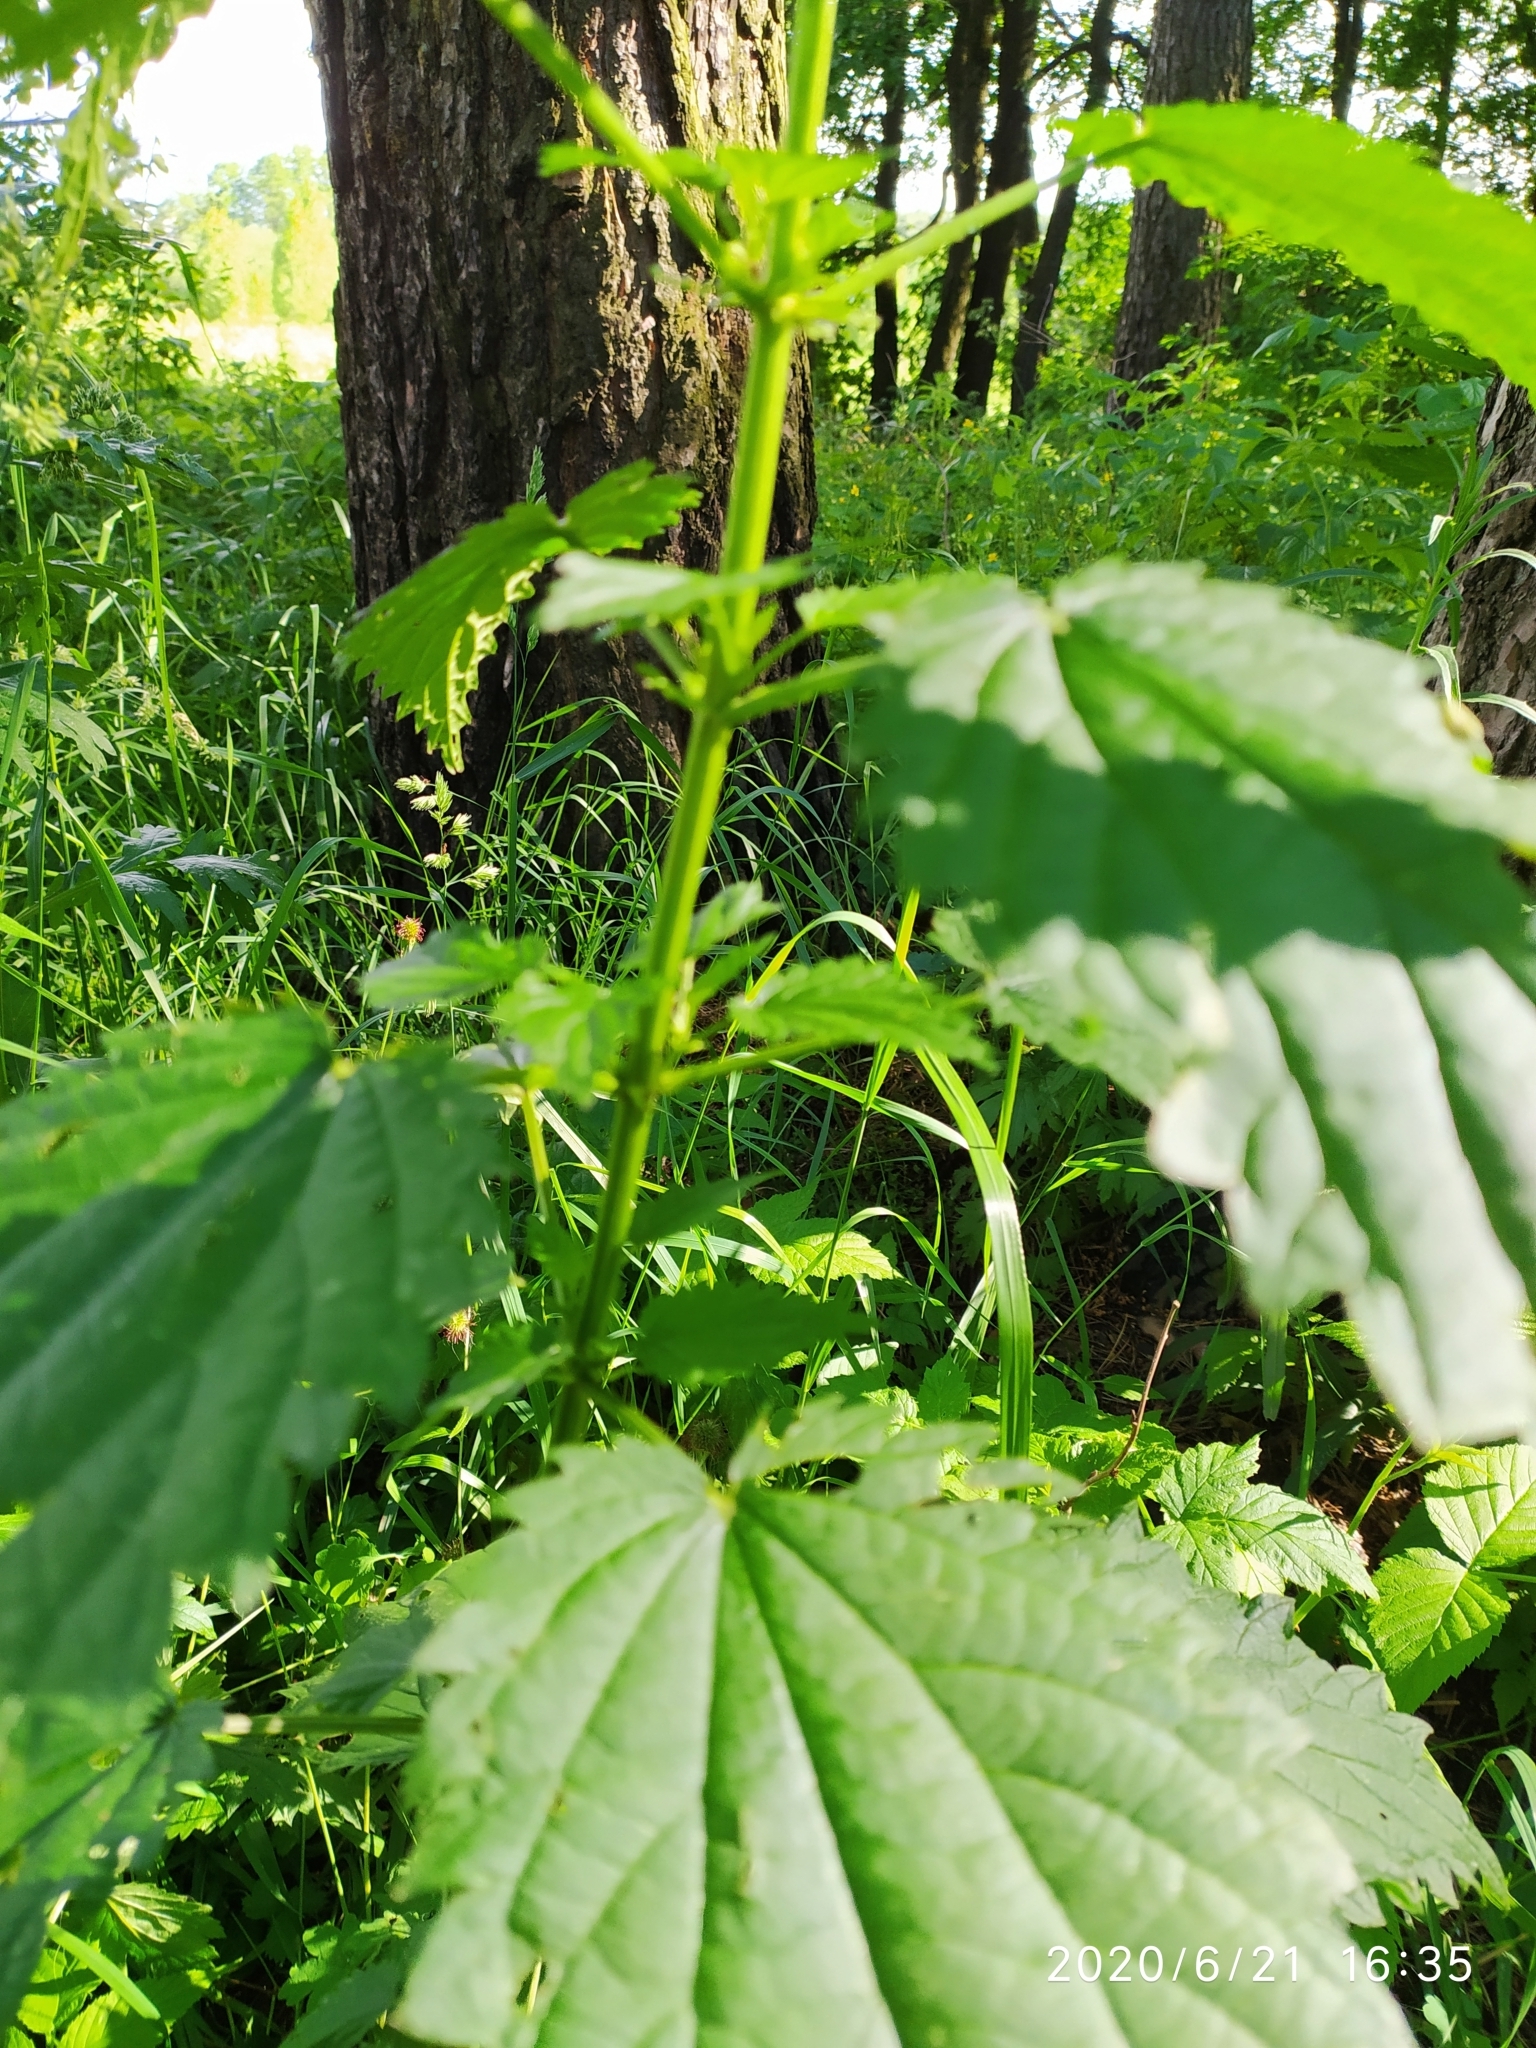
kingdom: Plantae
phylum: Tracheophyta
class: Magnoliopsida
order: Rosales
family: Urticaceae
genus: Urtica
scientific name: Urtica dioica
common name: Common nettle
